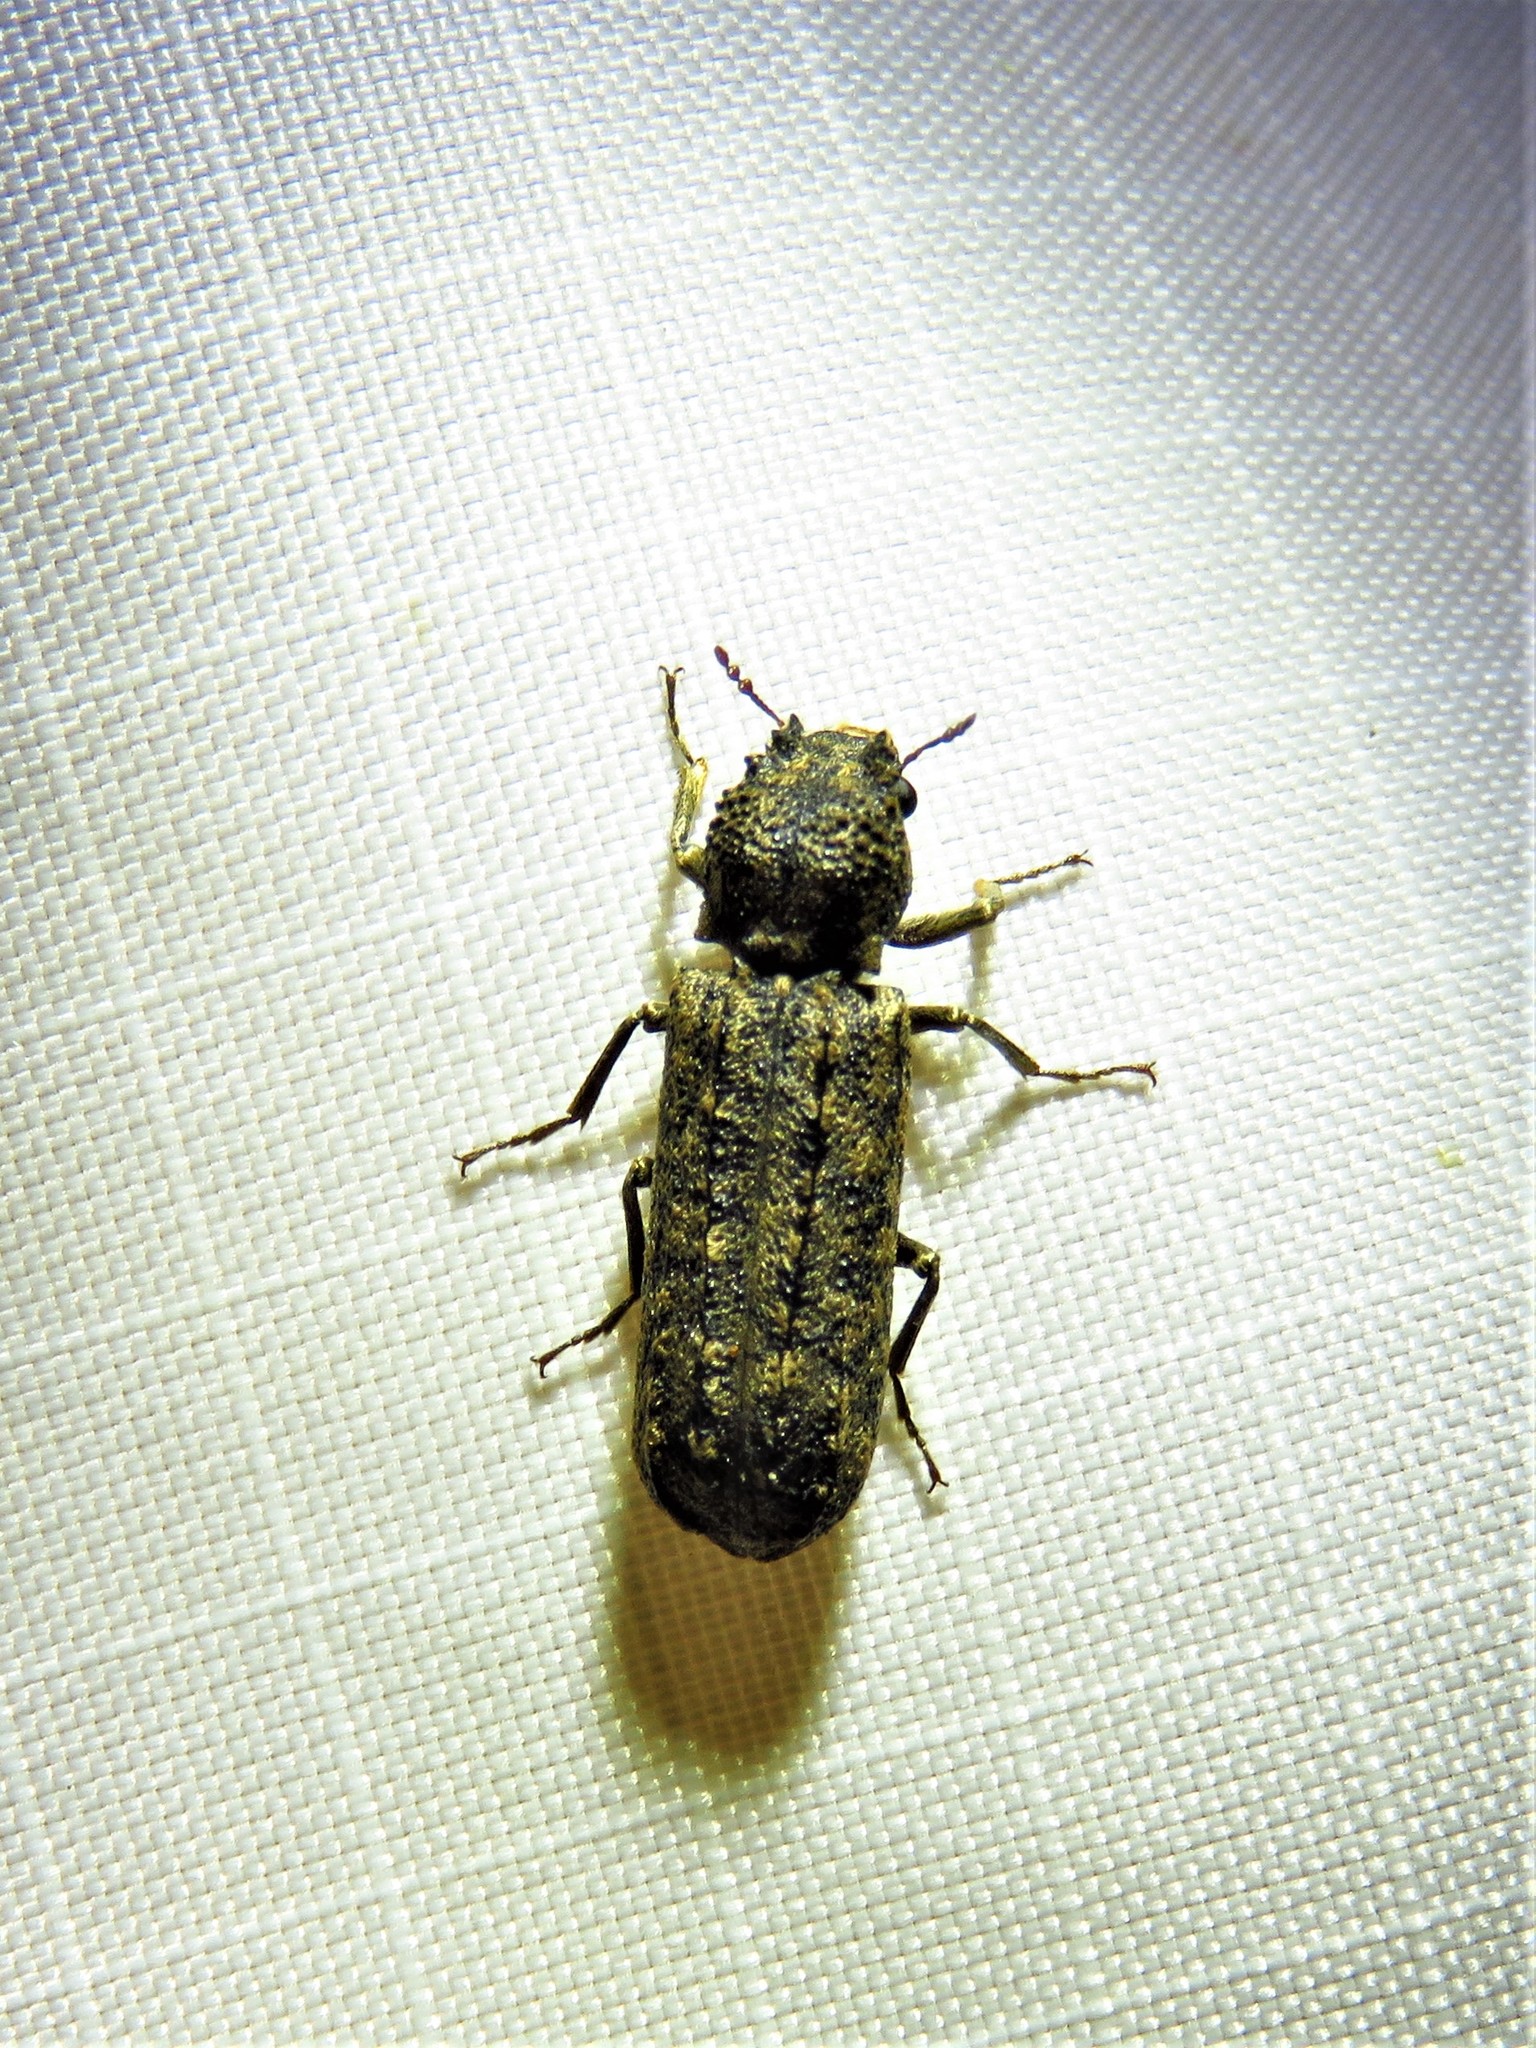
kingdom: Animalia
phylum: Arthropoda
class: Insecta
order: Coleoptera
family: Bostrichidae
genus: Lichenophanes
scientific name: Lichenophanes bicornis
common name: Two-horned powder-post beetle
